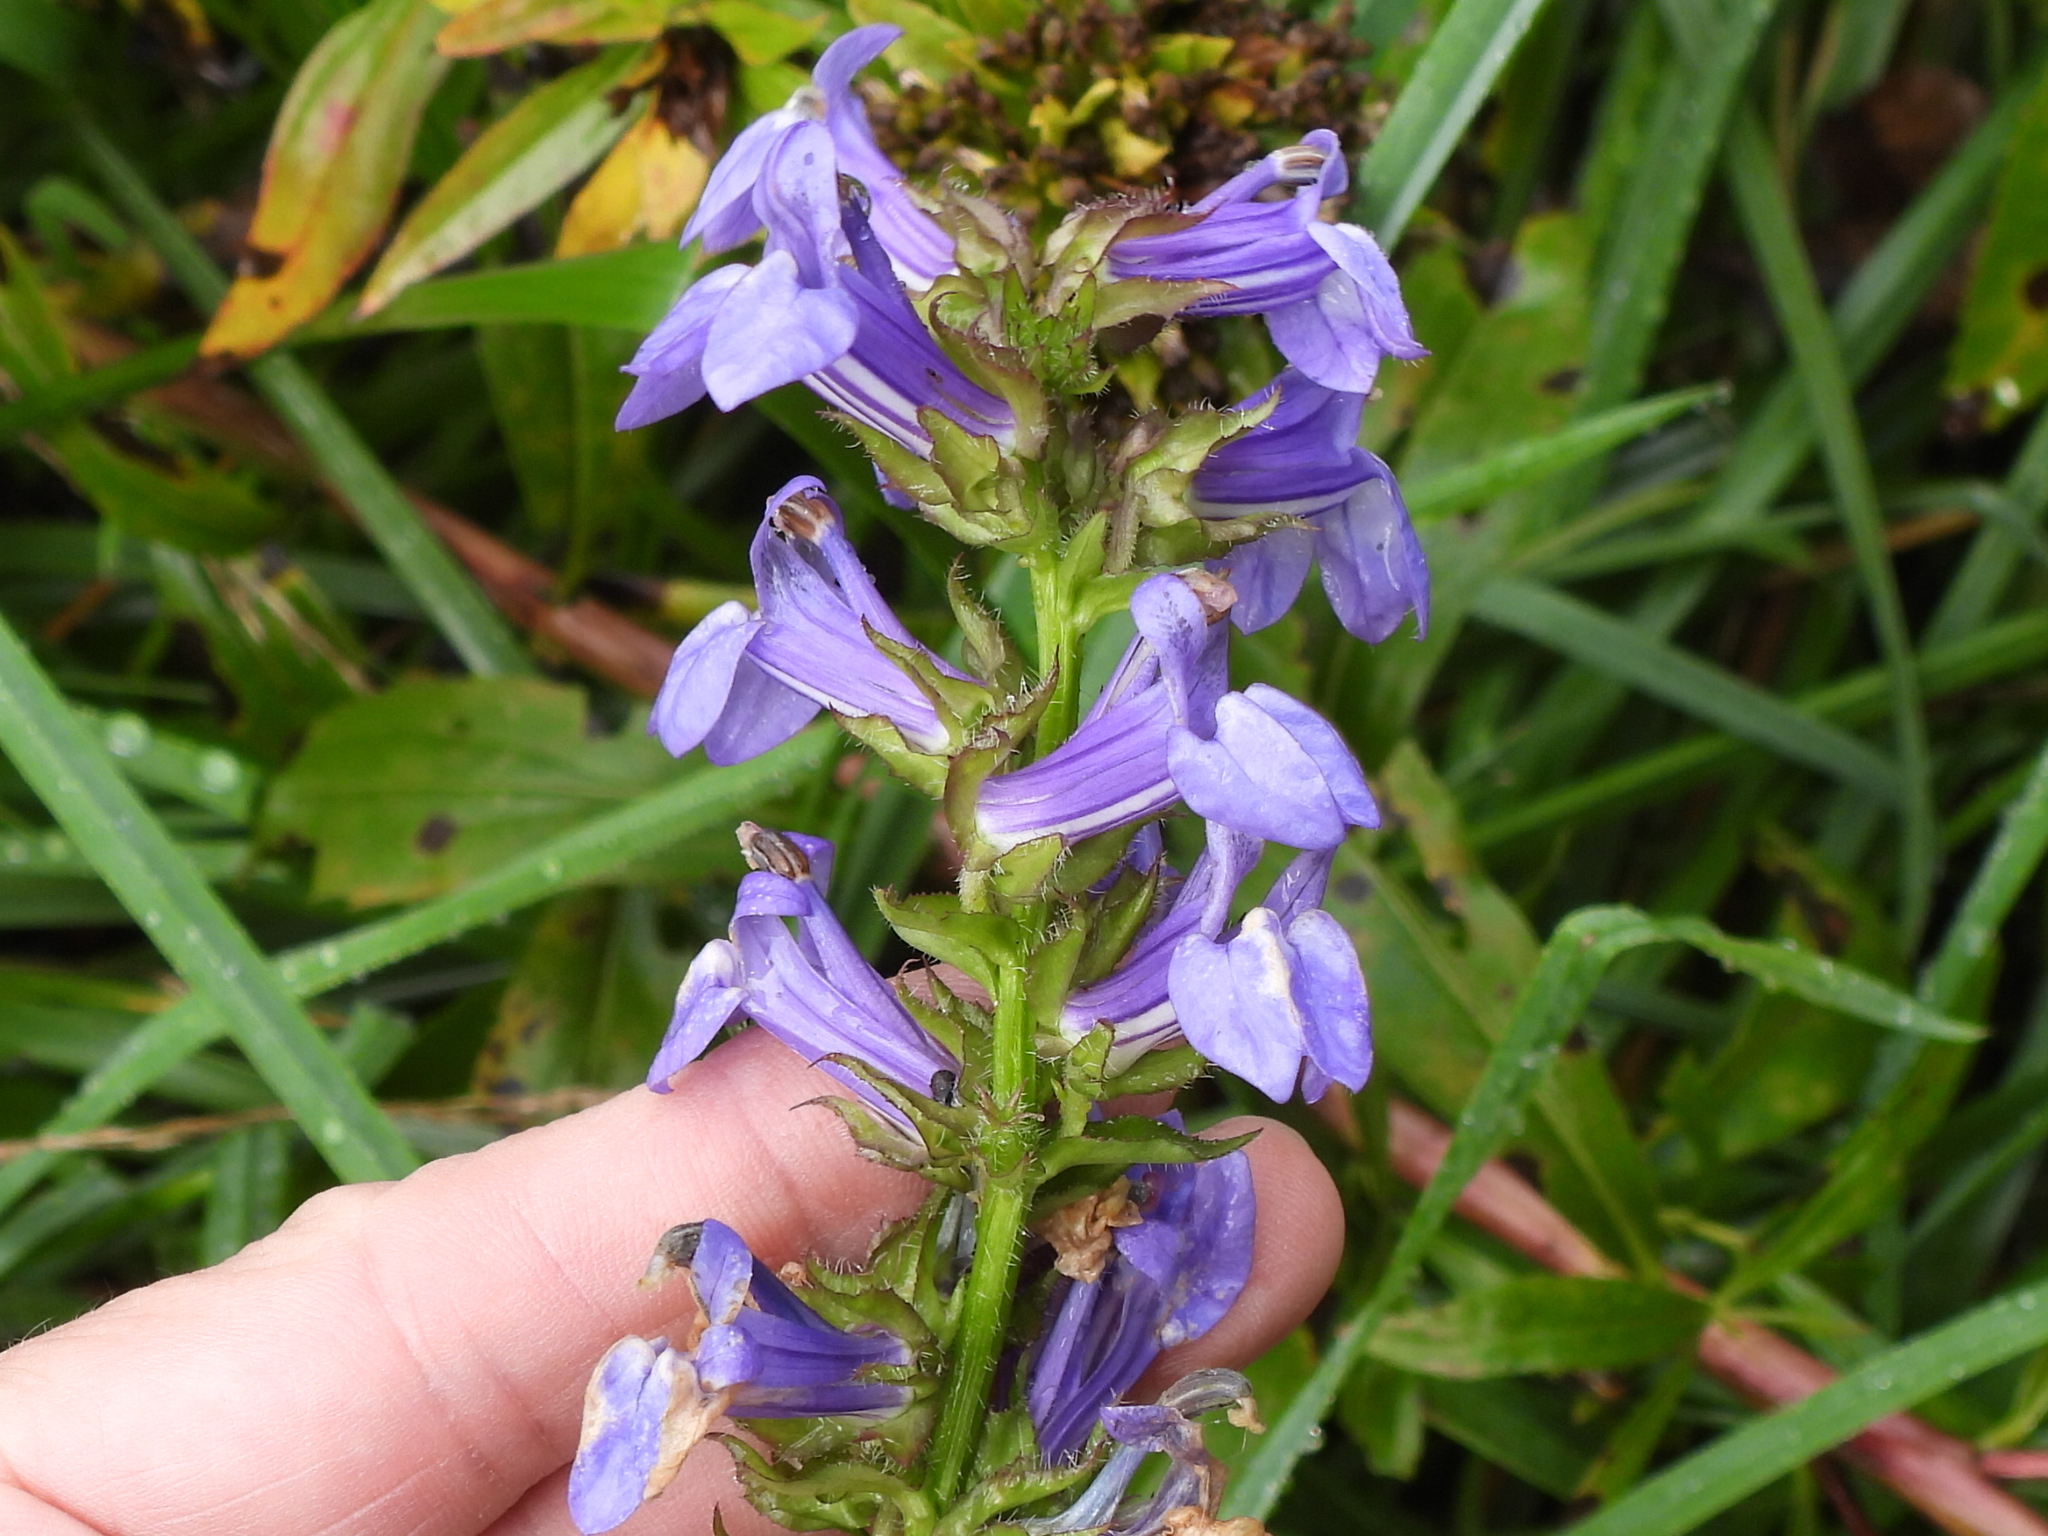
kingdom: Plantae
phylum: Tracheophyta
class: Magnoliopsida
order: Asterales
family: Campanulaceae
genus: Lobelia
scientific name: Lobelia siphilitica
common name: Great lobelia
